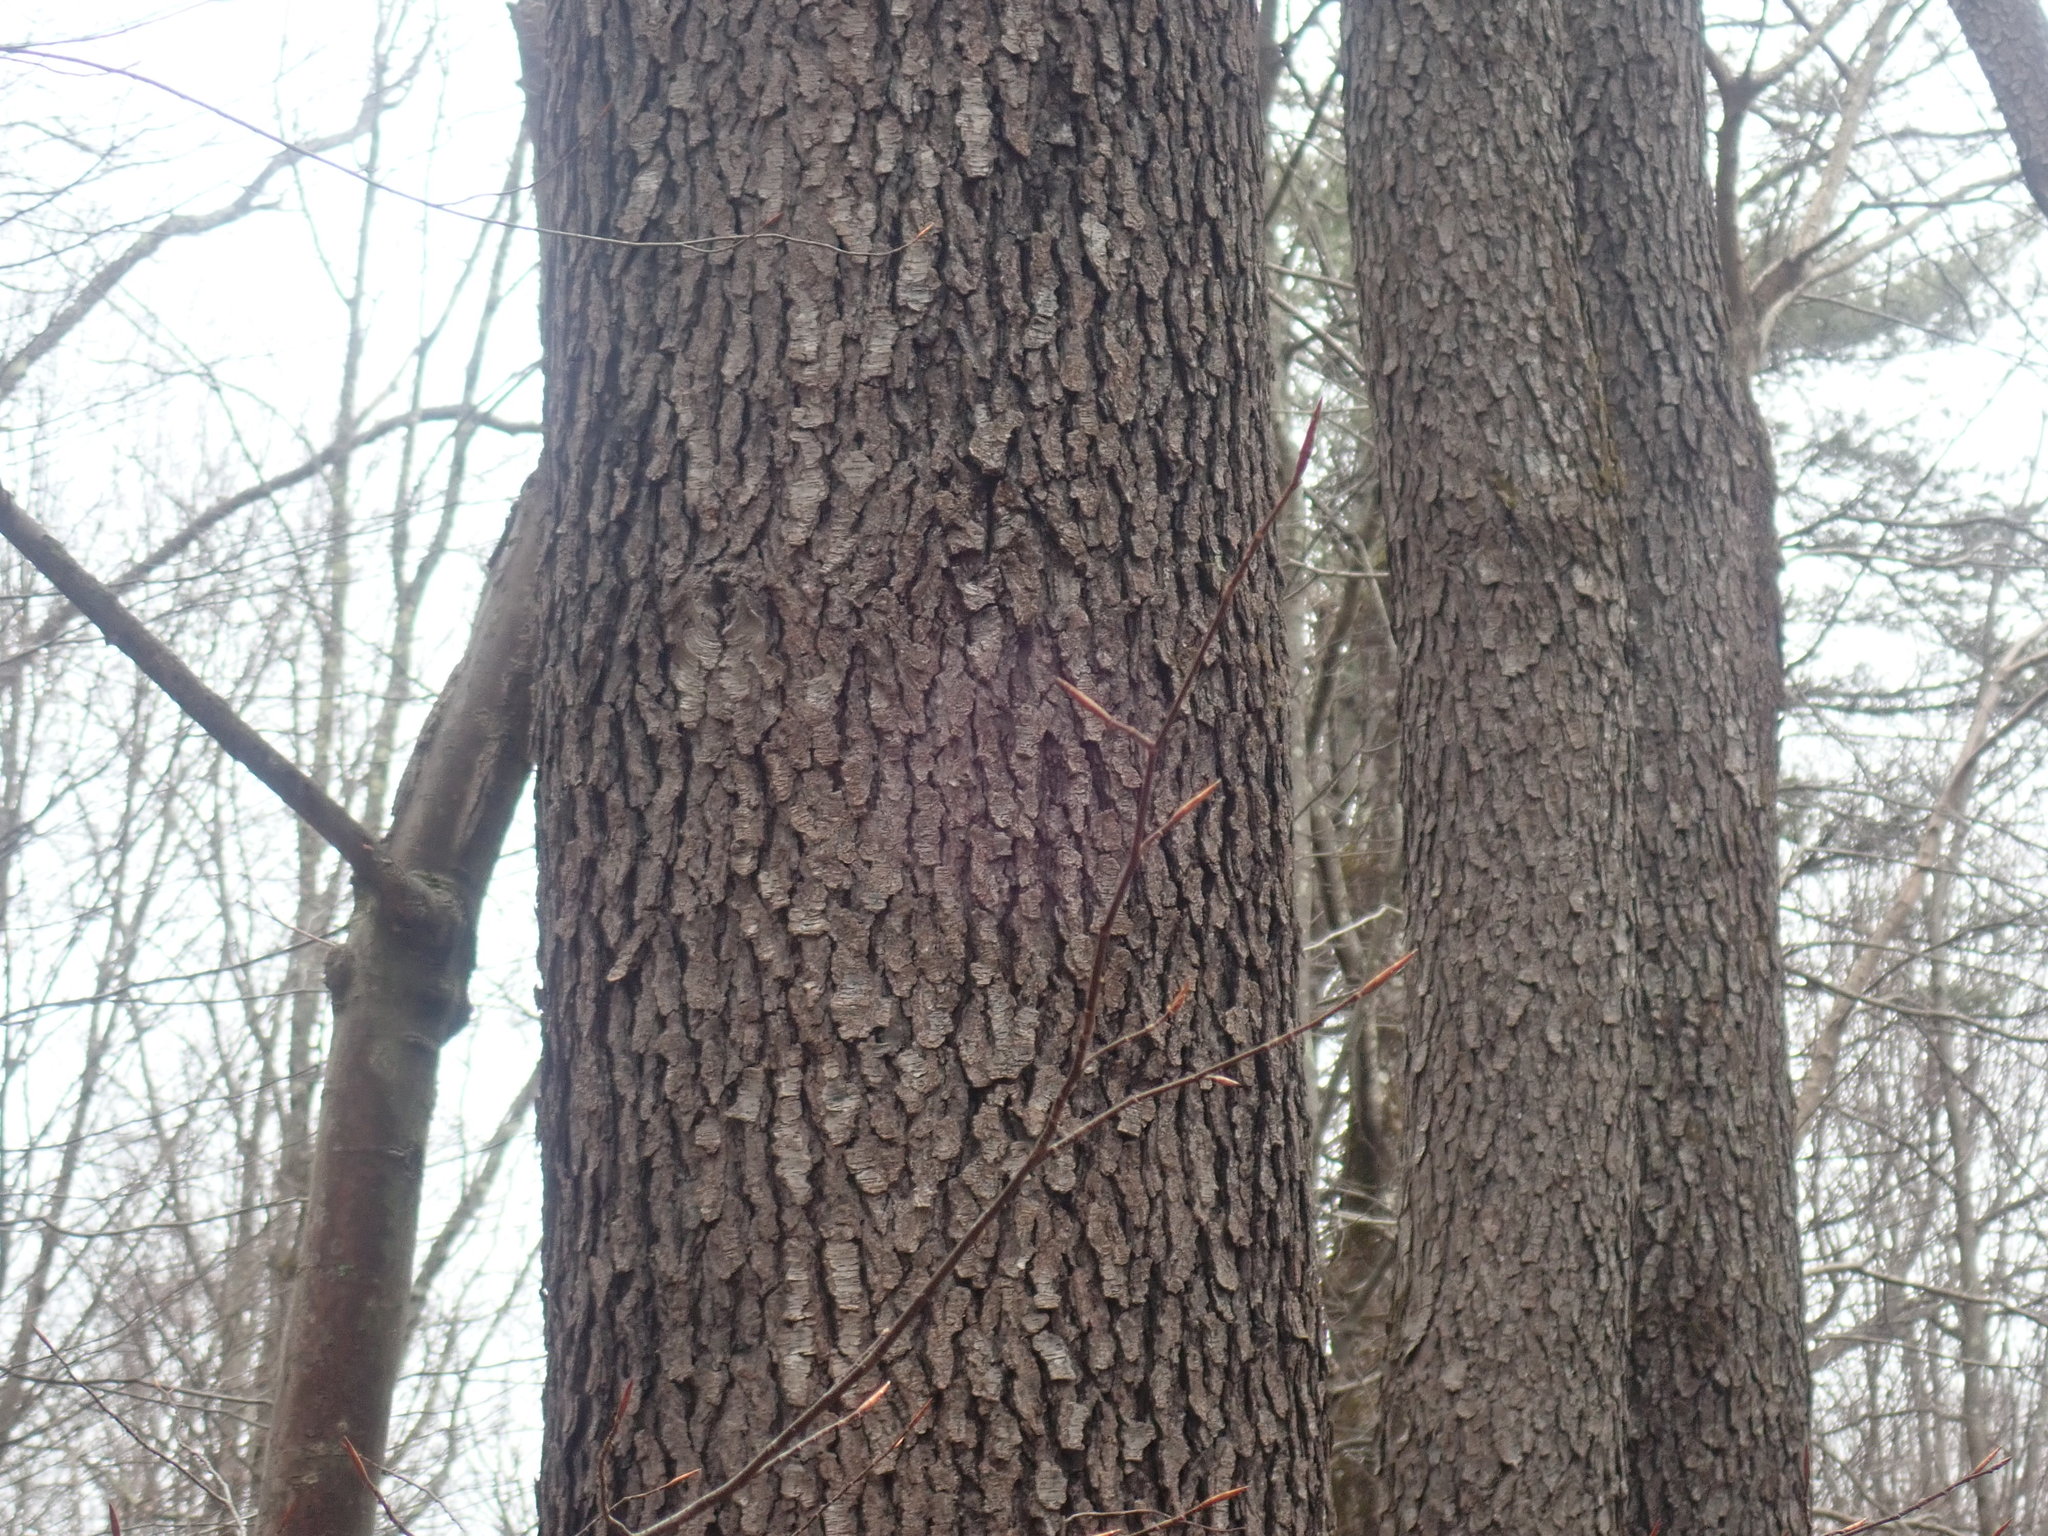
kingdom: Plantae
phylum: Tracheophyta
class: Magnoliopsida
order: Rosales
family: Rosaceae
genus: Prunus
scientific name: Prunus serotina
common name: Black cherry
